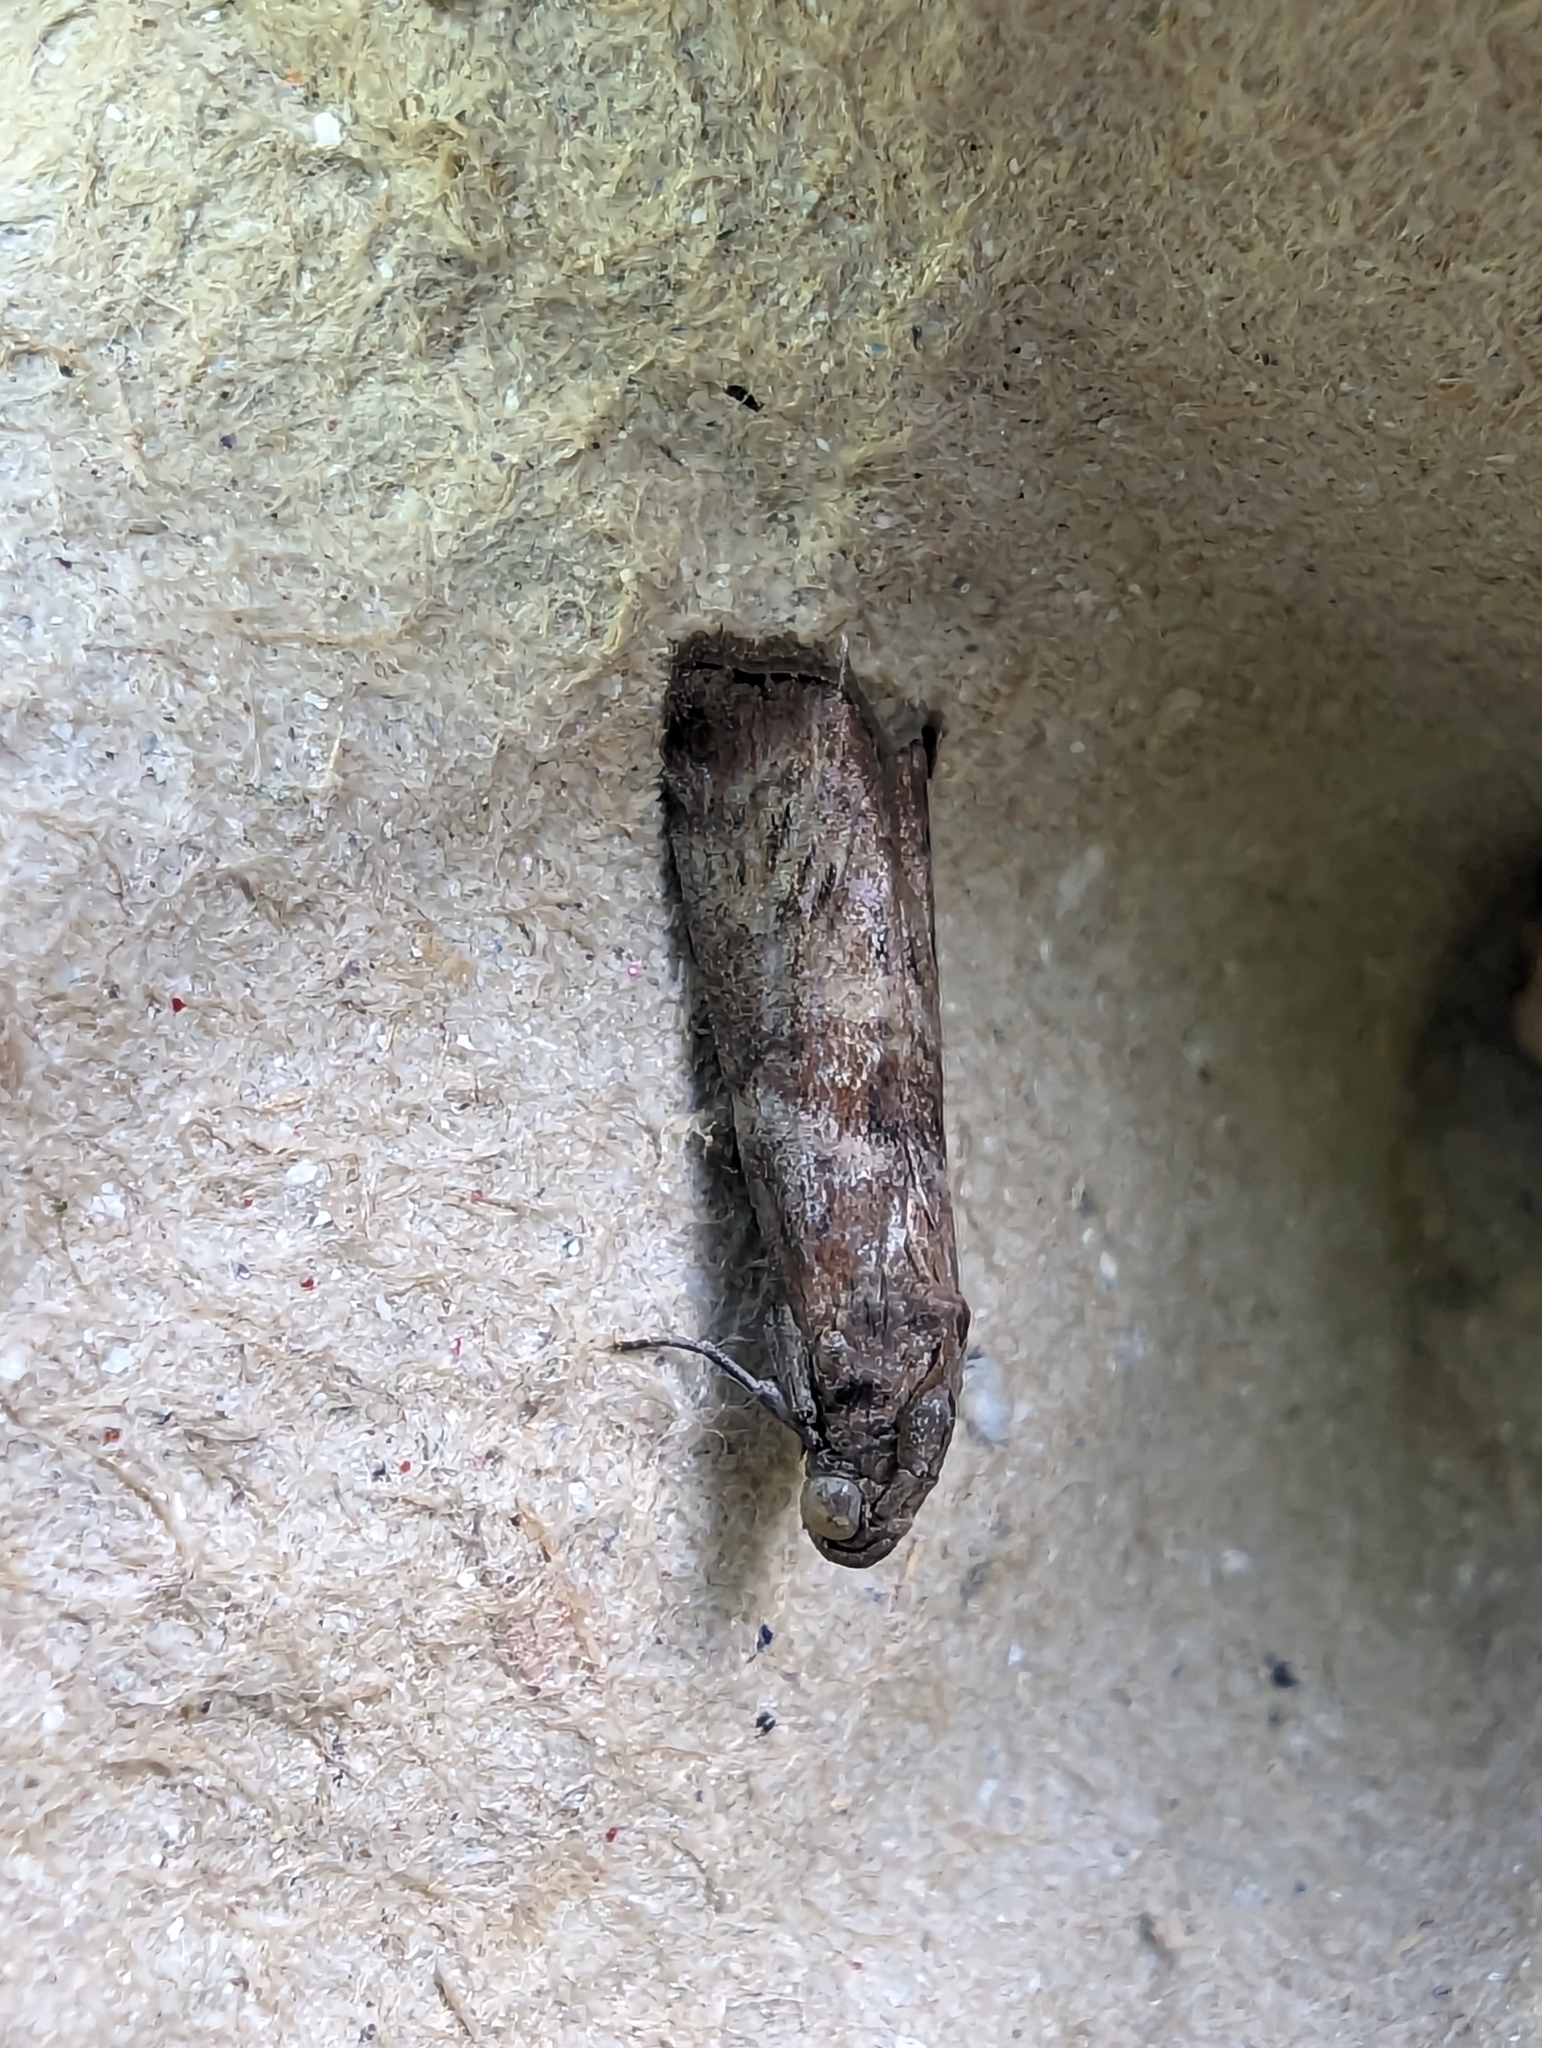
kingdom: Animalia
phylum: Arthropoda
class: Insecta
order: Lepidoptera
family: Pyralidae
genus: Phycita
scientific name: Phycita roborella
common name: Dotted oak knot-horn
